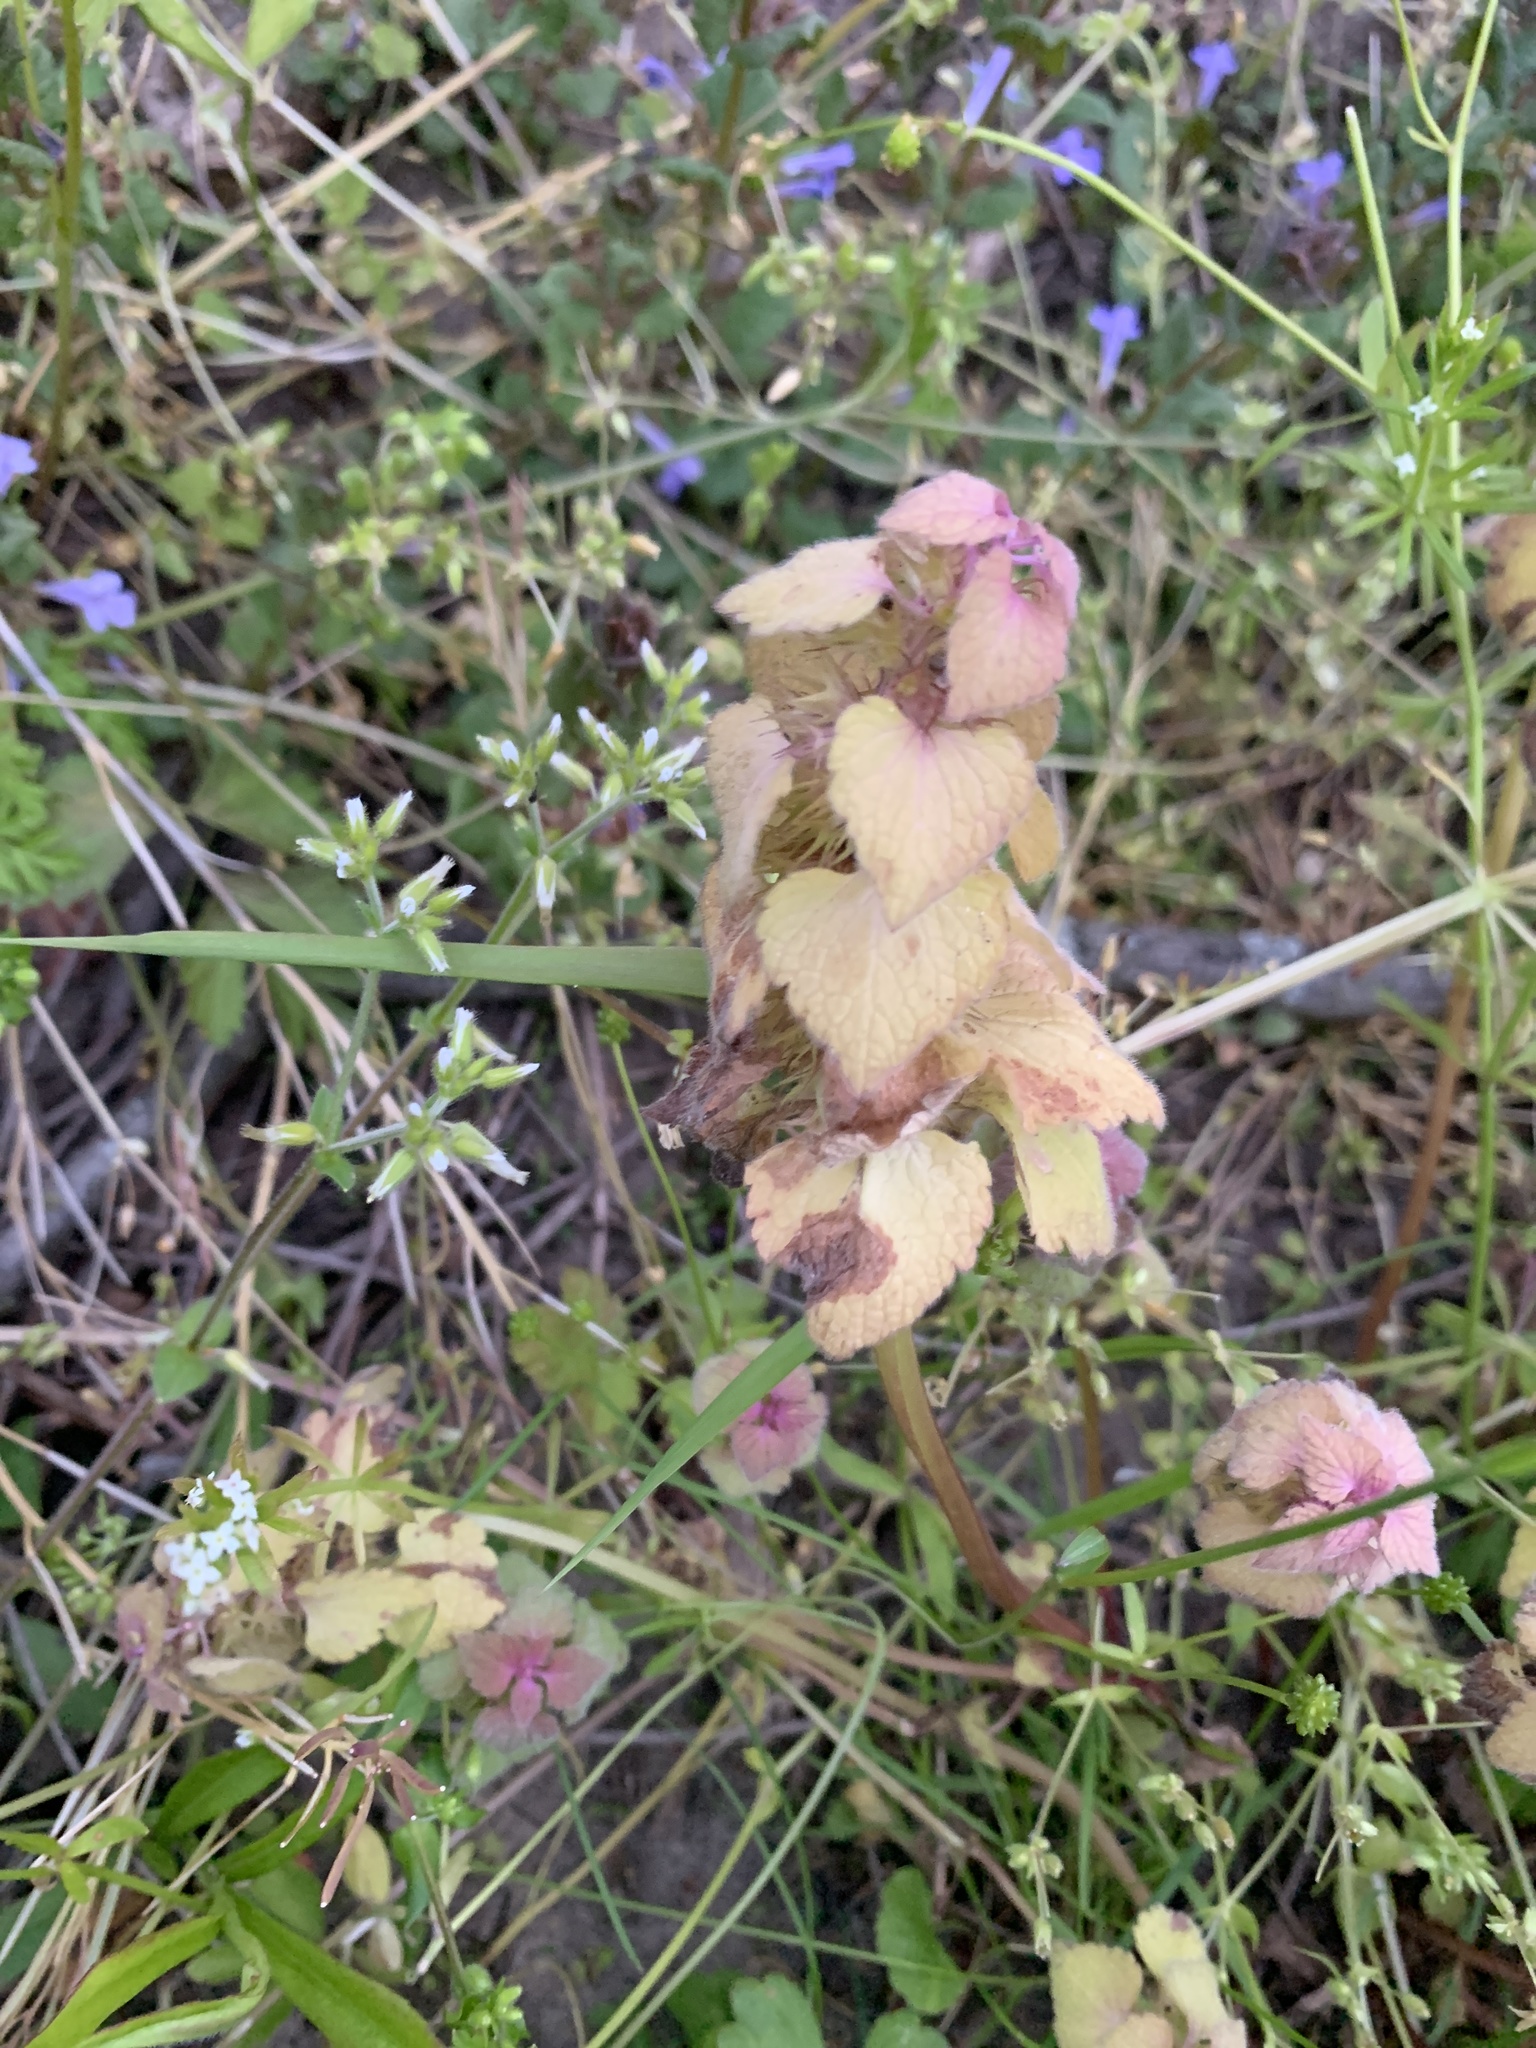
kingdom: Plantae
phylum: Tracheophyta
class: Magnoliopsida
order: Lamiales
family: Lamiaceae
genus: Lamium
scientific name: Lamium purpureum
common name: Red dead-nettle
